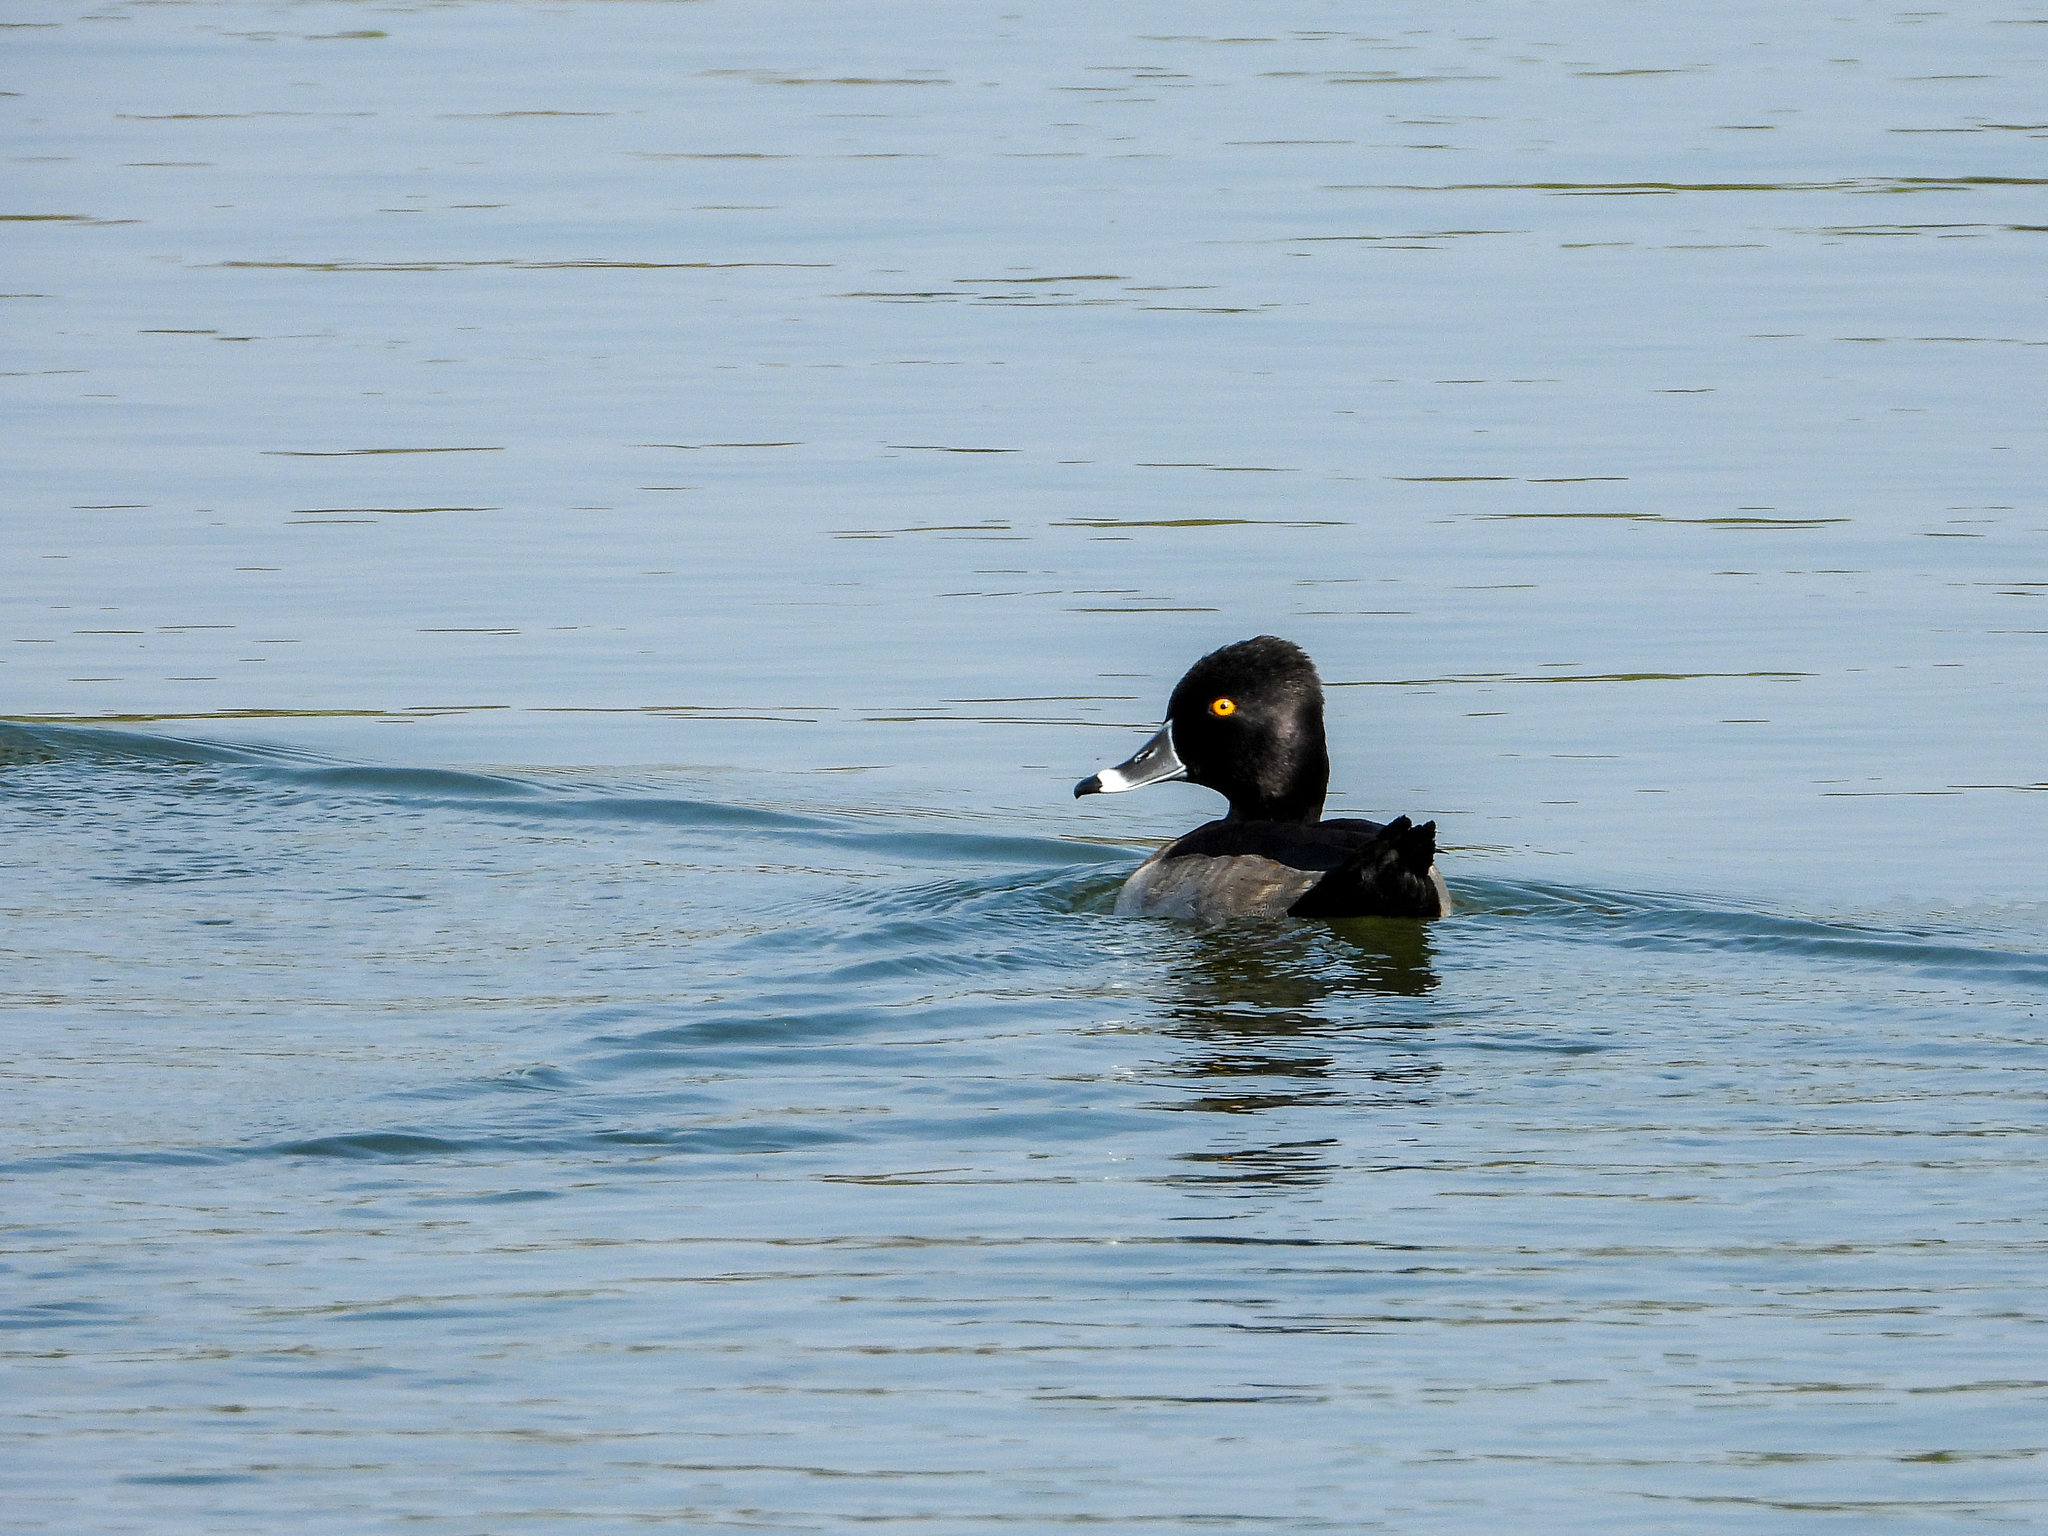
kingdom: Animalia
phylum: Chordata
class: Aves
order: Anseriformes
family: Anatidae
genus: Aythya
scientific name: Aythya collaris
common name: Ring-necked duck
